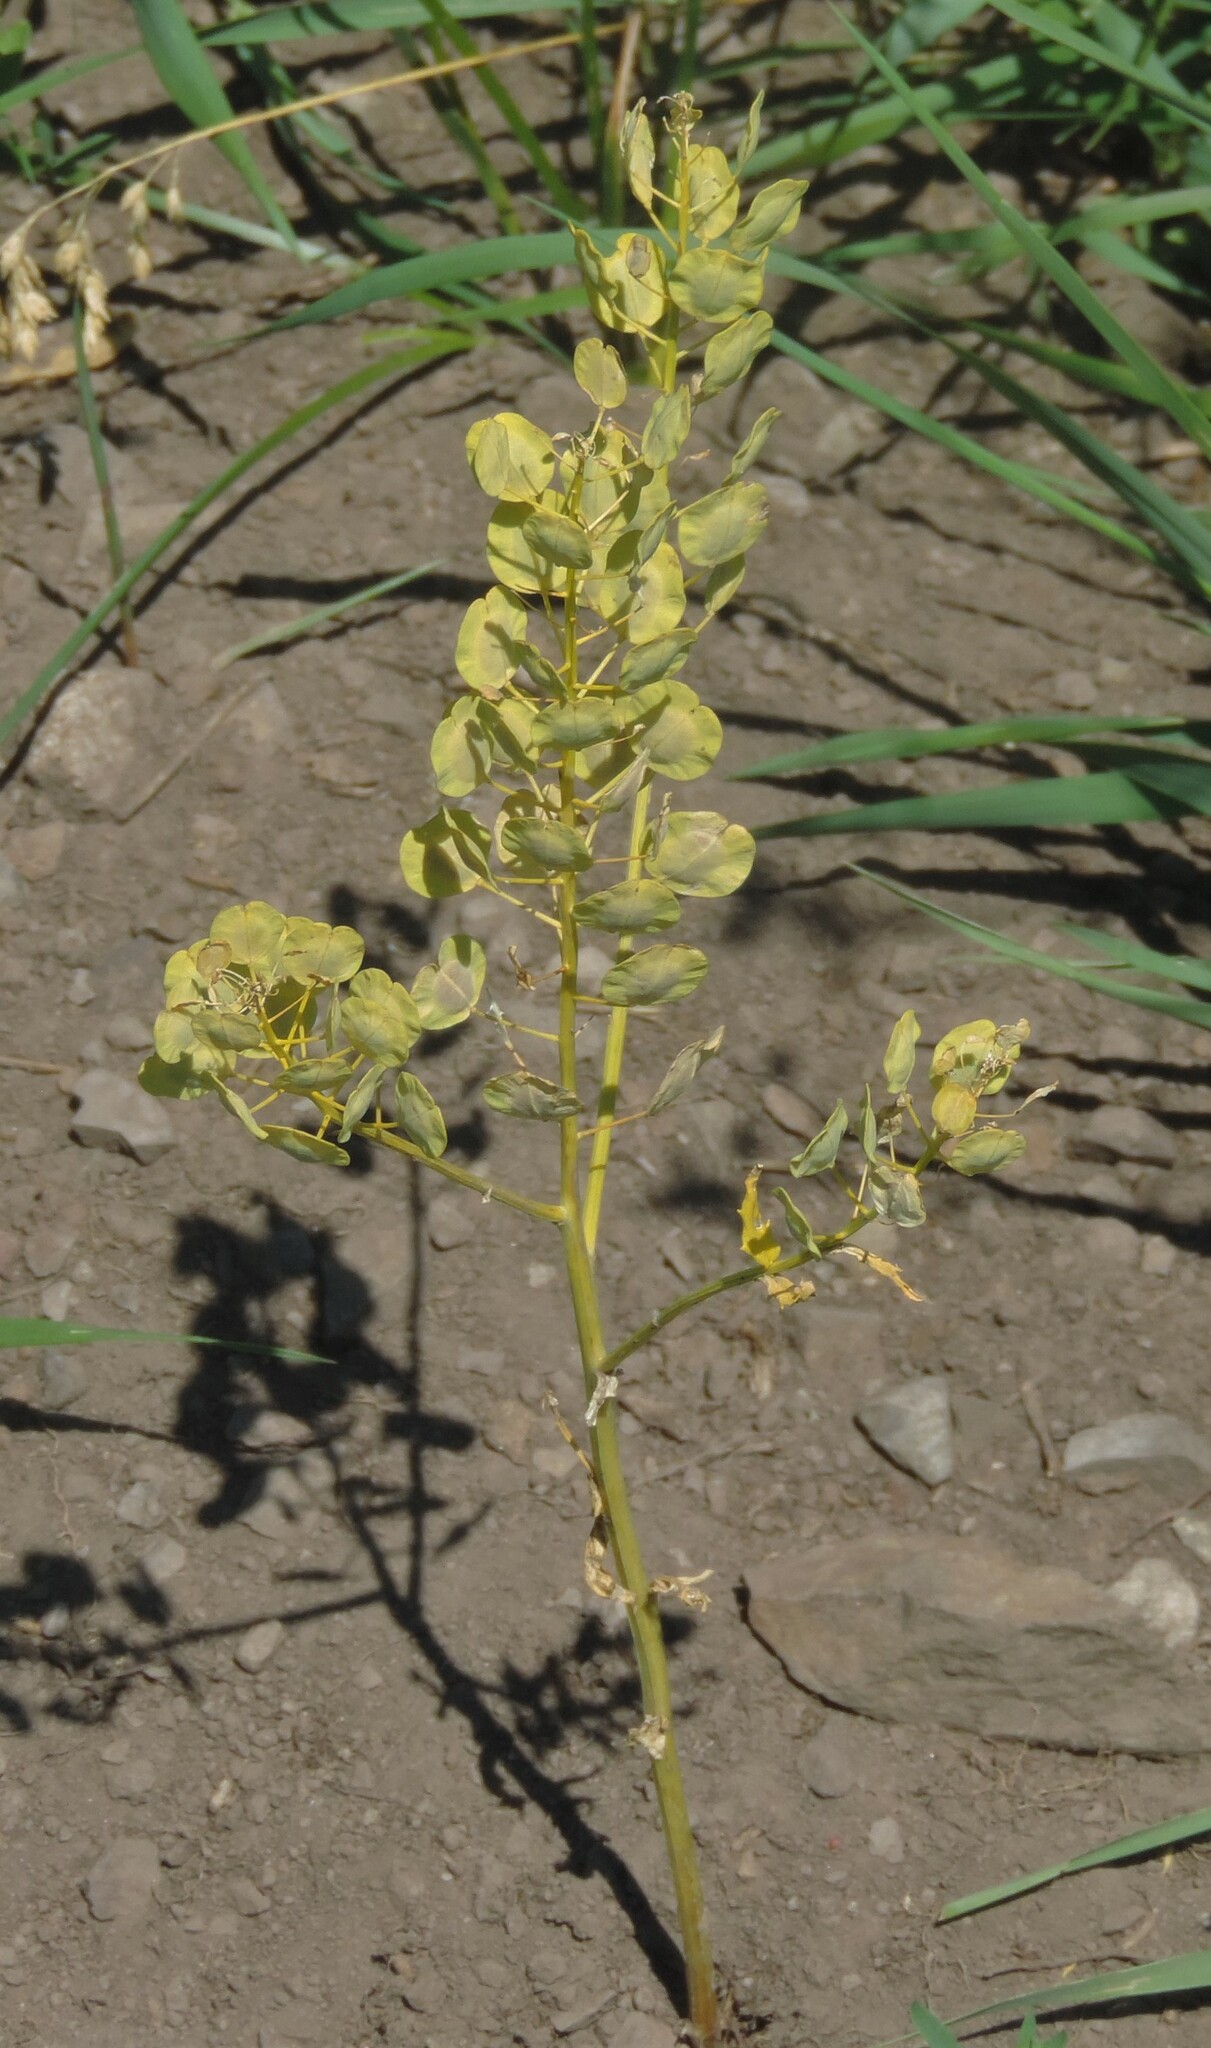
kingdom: Plantae
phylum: Tracheophyta
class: Magnoliopsida
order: Brassicales
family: Brassicaceae
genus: Thlaspi
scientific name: Thlaspi arvense
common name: Field pennycress
